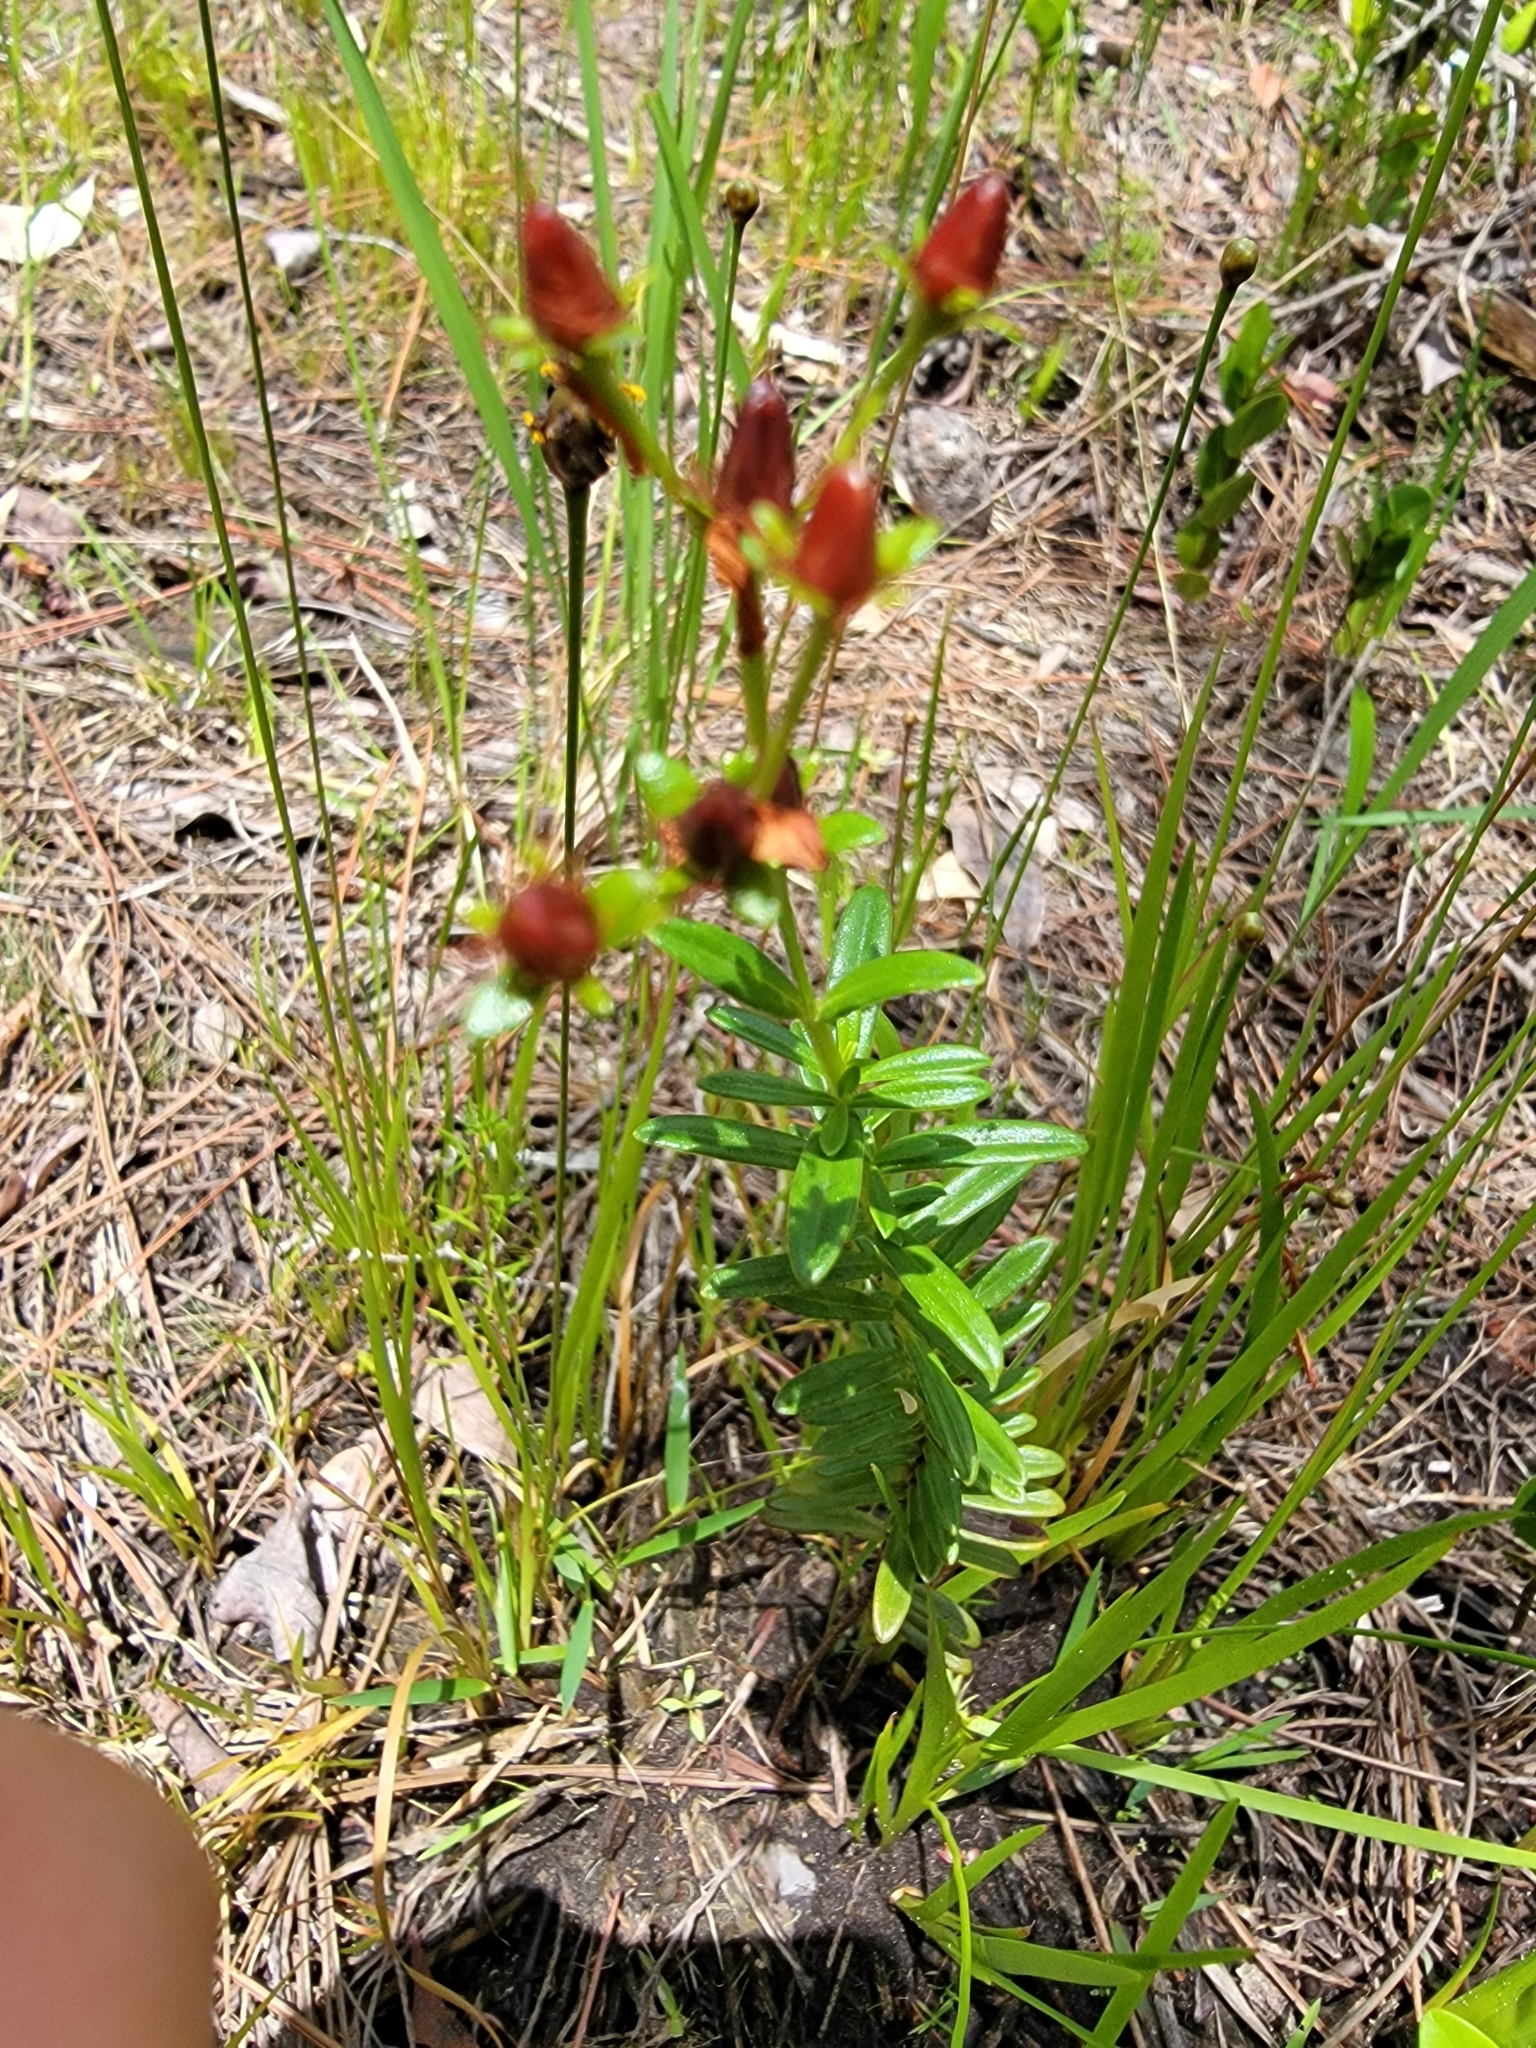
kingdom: Plantae
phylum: Tracheophyta
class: Magnoliopsida
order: Malpighiales
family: Hypericaceae
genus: Hypericum
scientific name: Hypericum cistifolium
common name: Round-pod st. john's-wort
